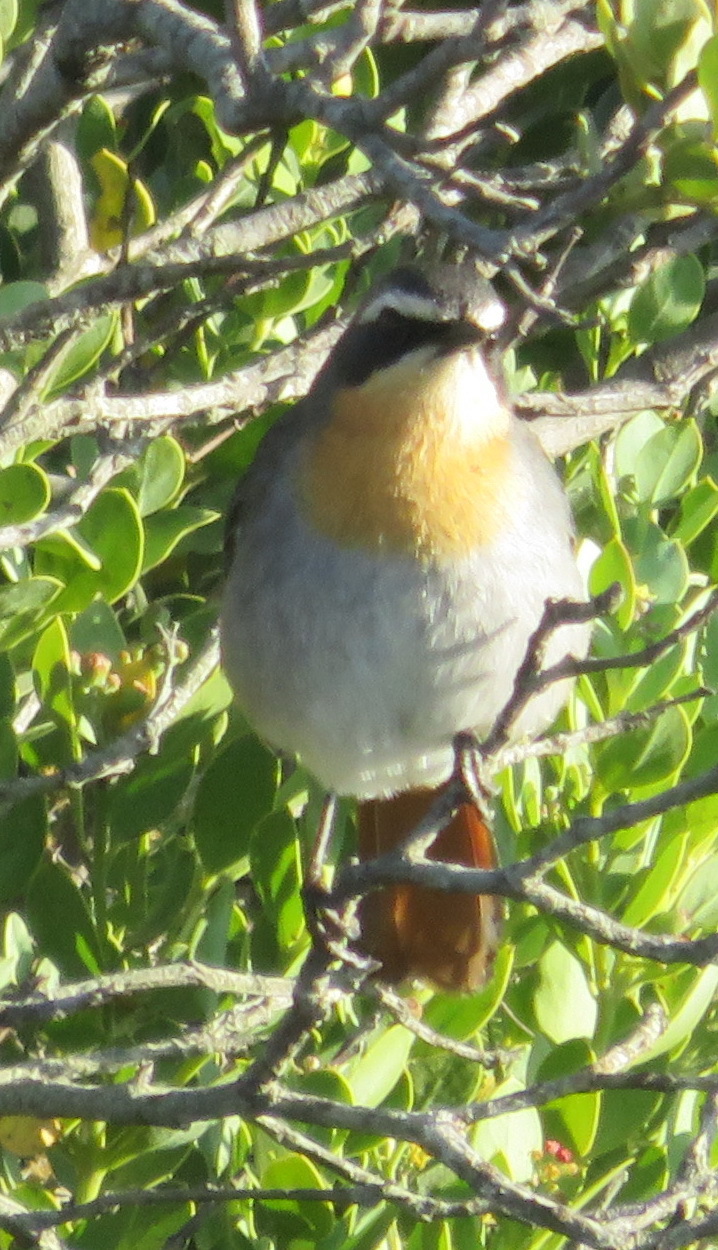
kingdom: Animalia
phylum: Chordata
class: Aves
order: Passeriformes
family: Muscicapidae
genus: Cossypha
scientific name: Cossypha caffra
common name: Cape robin-chat
